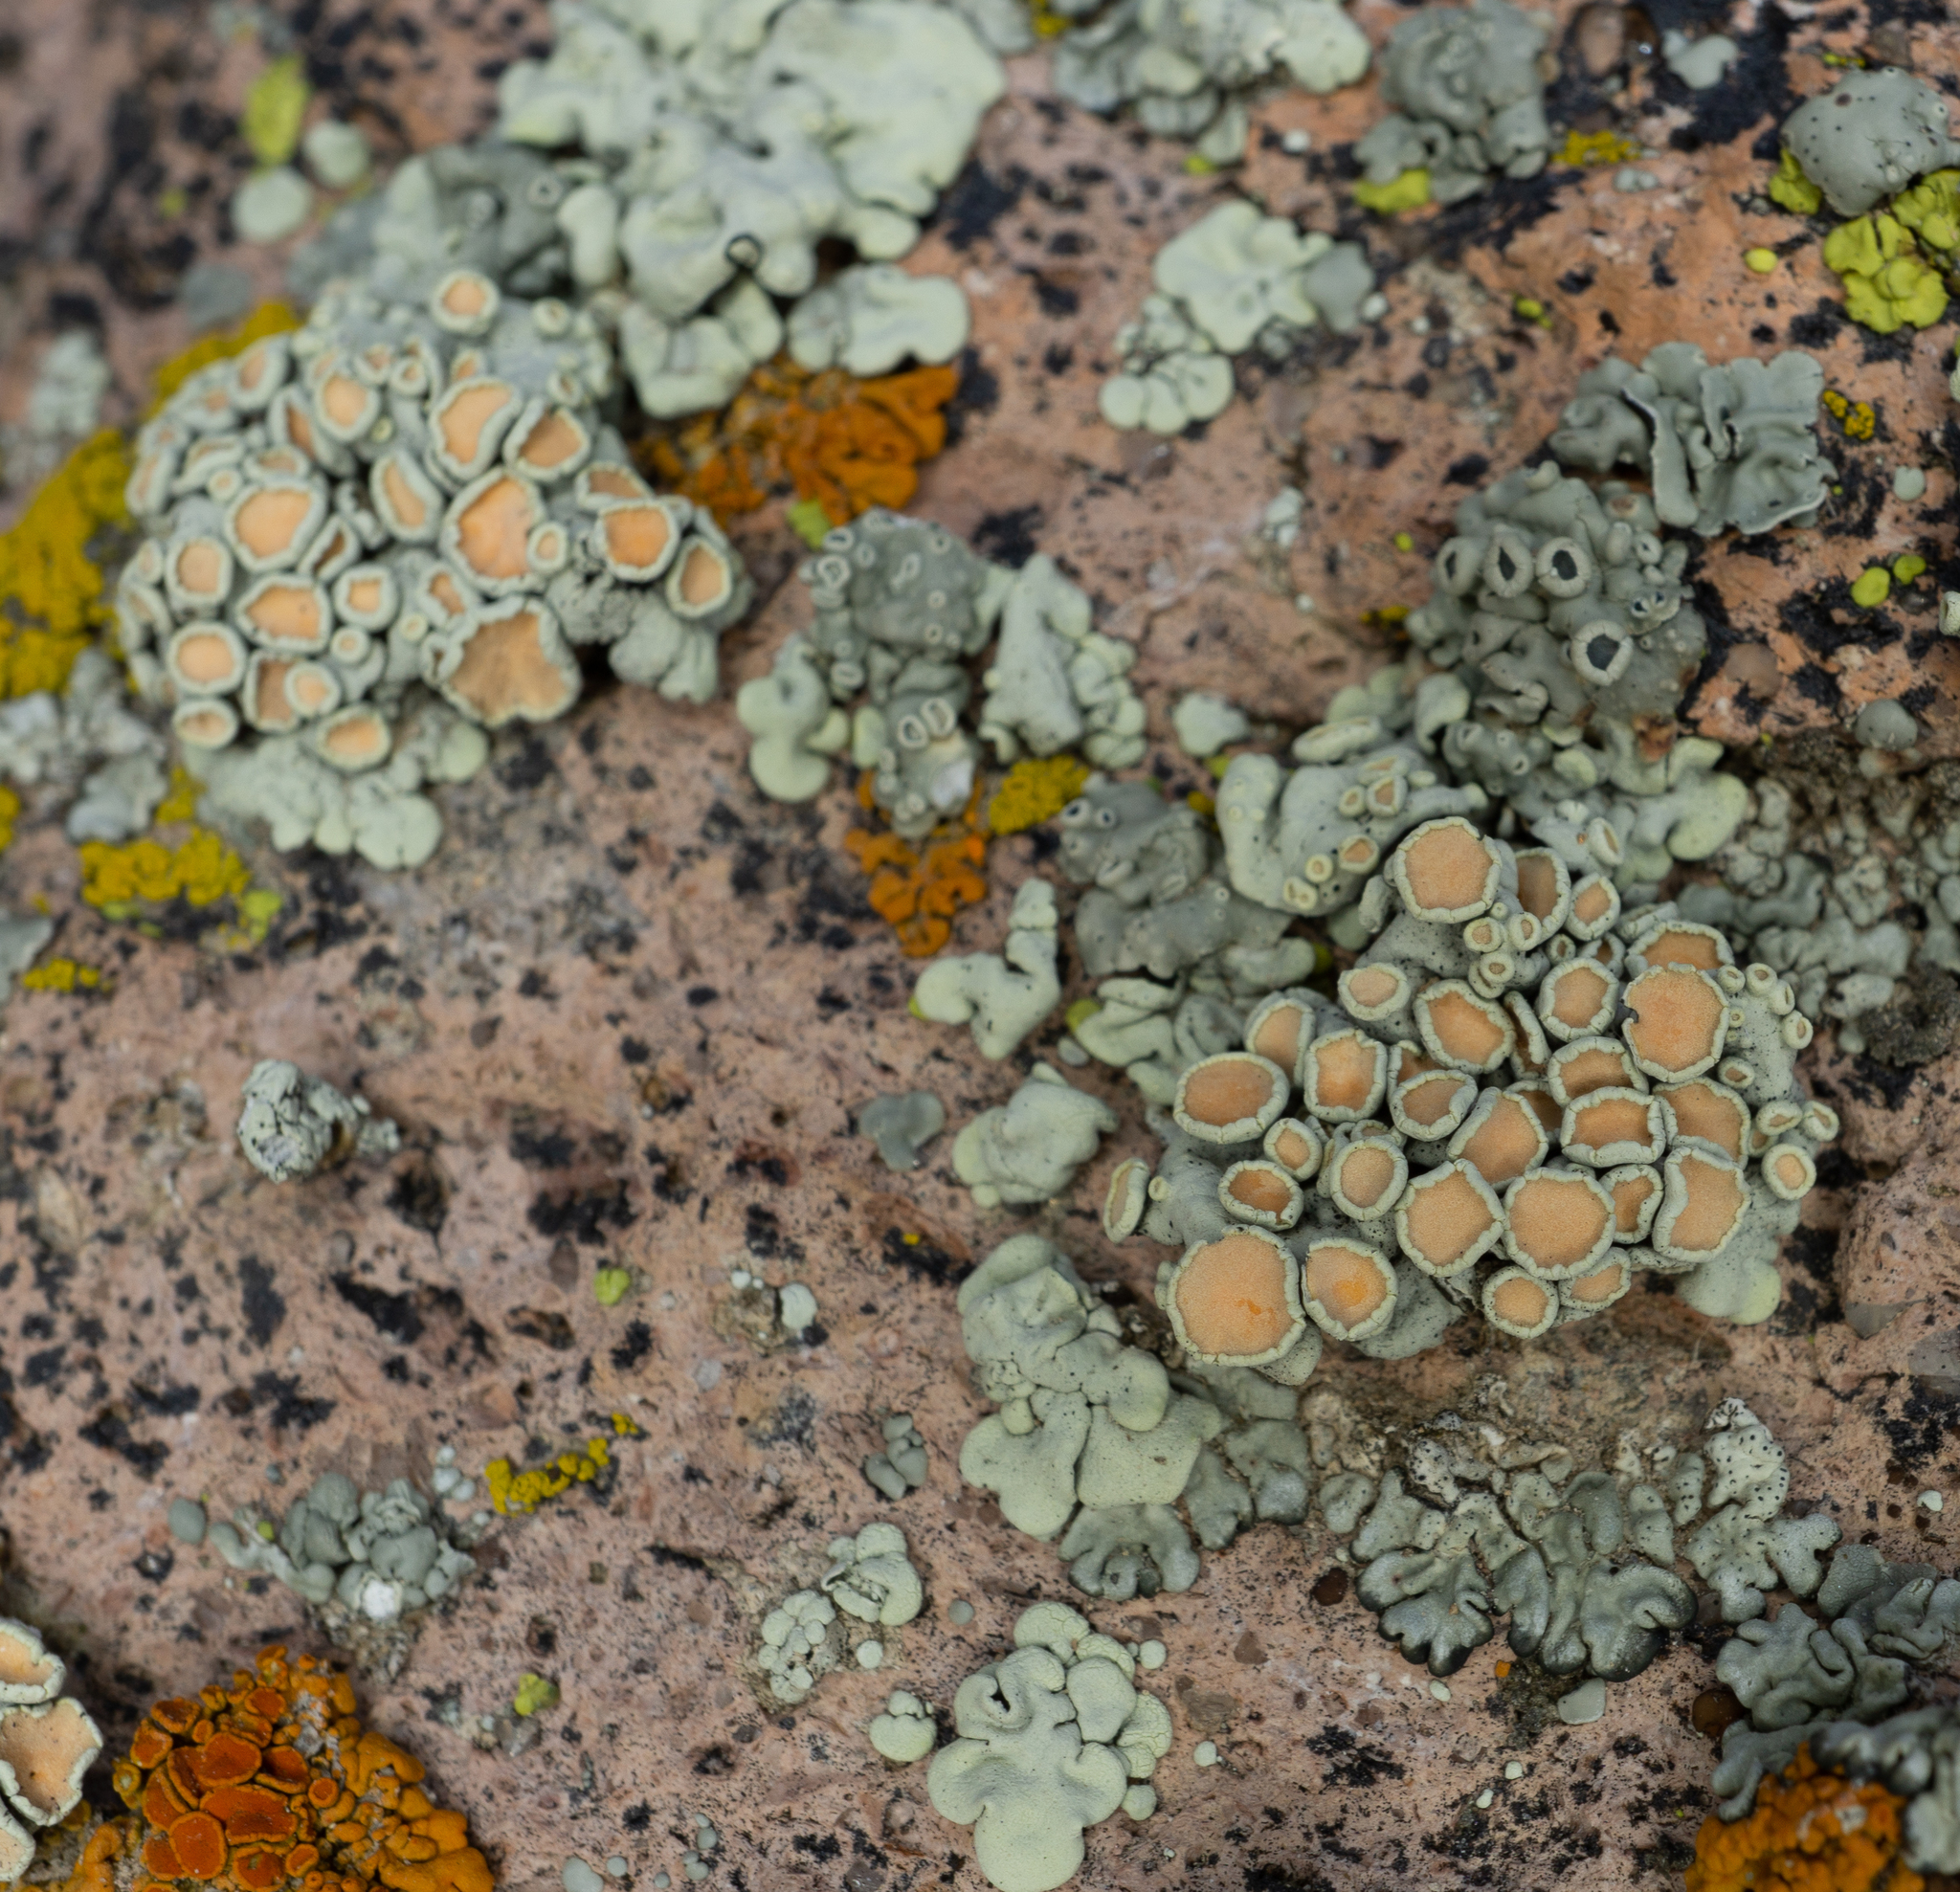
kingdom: Fungi
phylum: Ascomycota
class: Lecanoromycetes
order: Lecanorales
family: Lecanoraceae
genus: Omphalodina
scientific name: Omphalodina chrysoleuca
